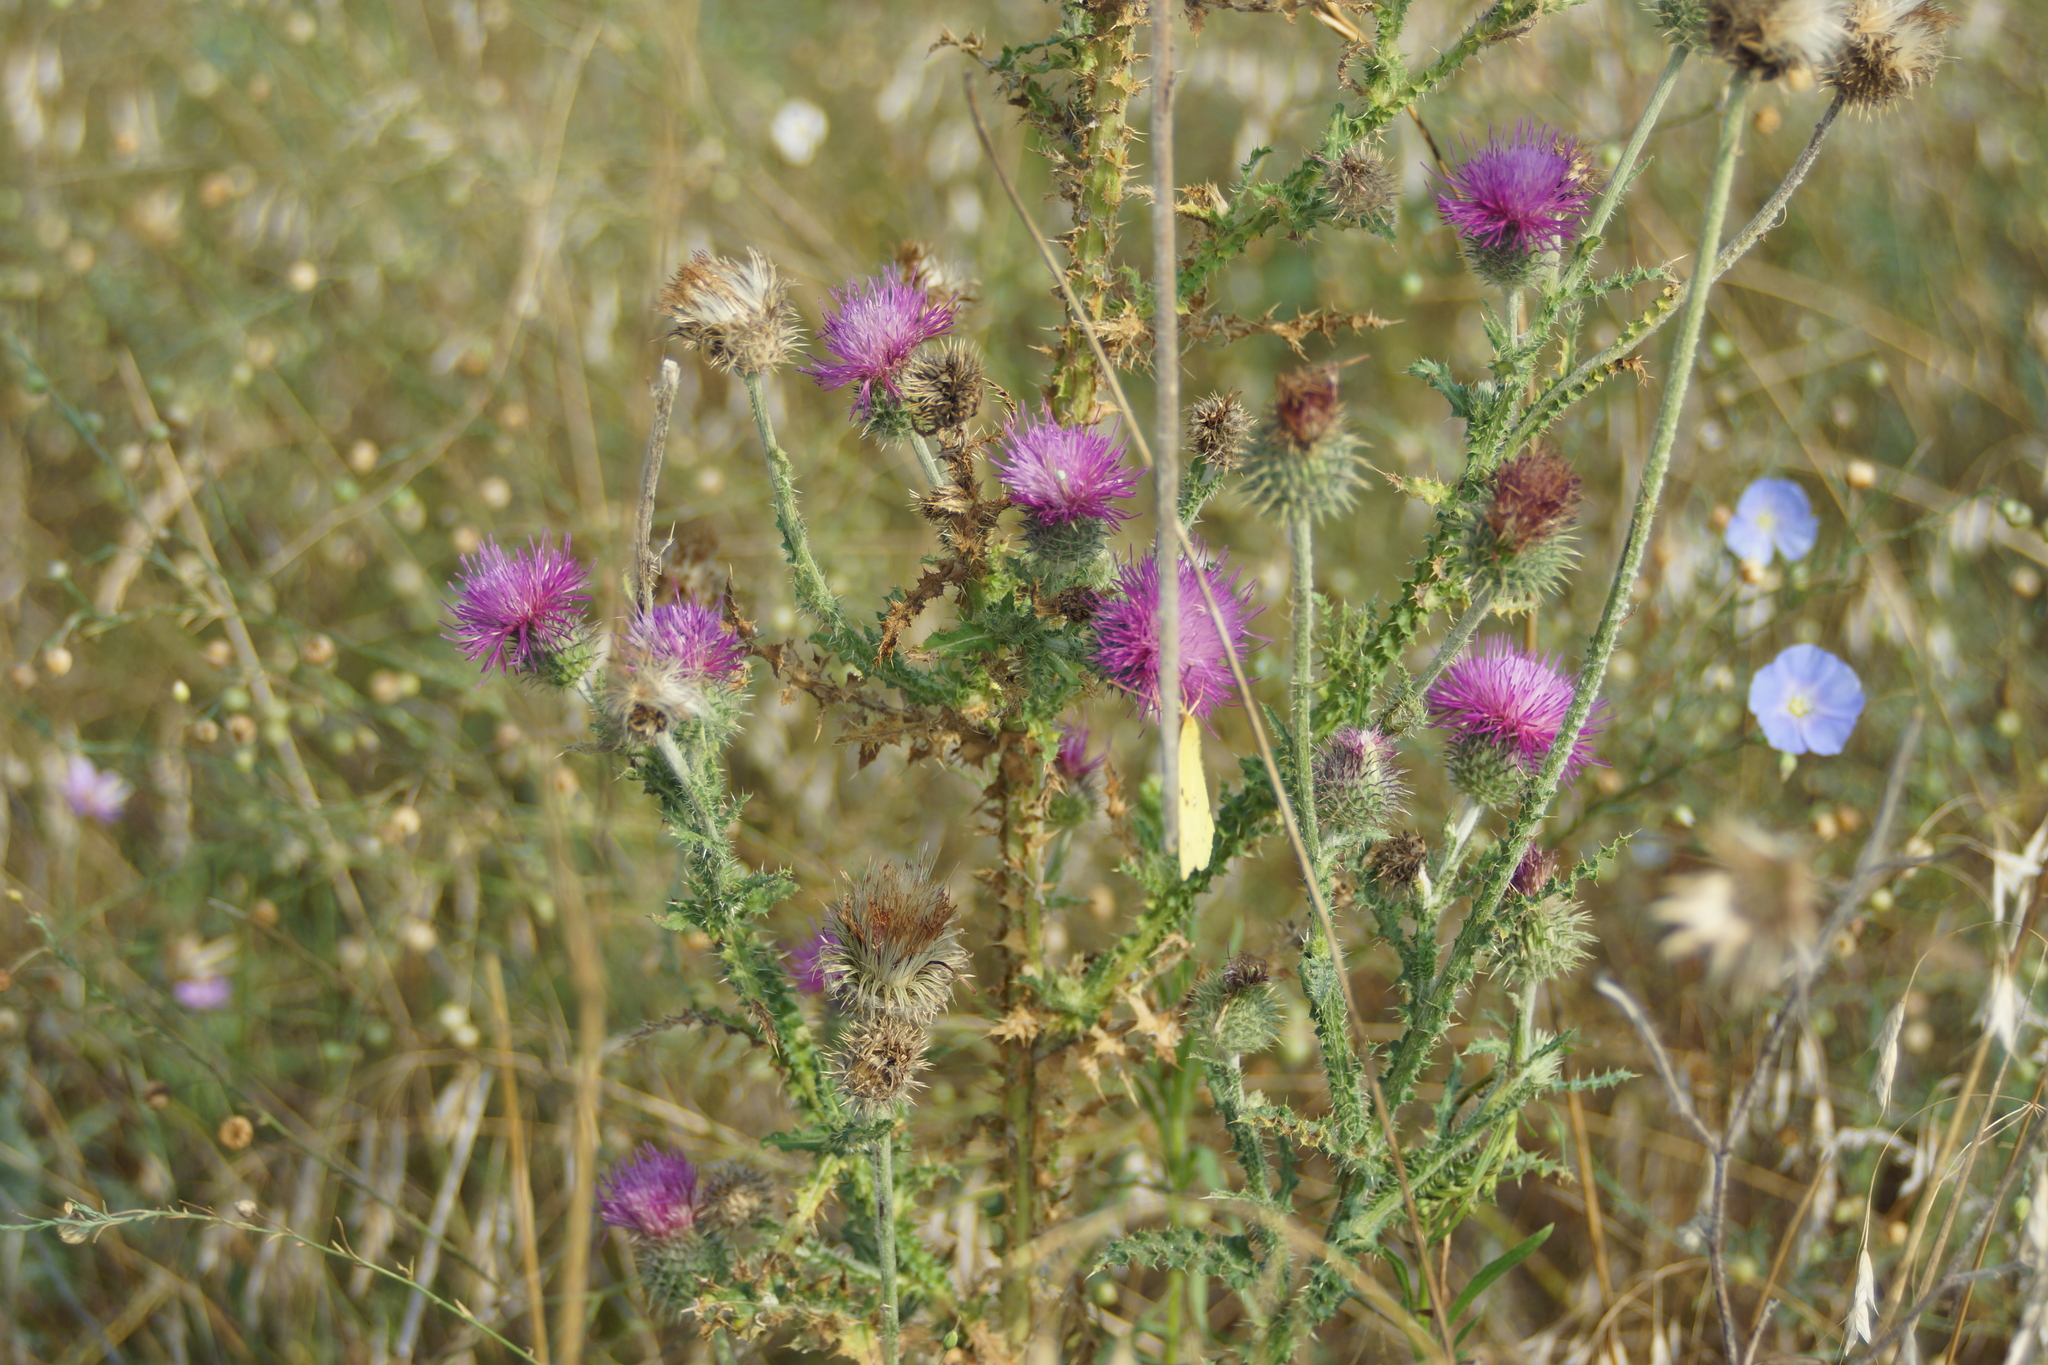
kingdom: Plantae
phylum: Tracheophyta
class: Magnoliopsida
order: Asterales
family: Asteraceae
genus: Carduus
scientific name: Carduus acanthoides
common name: Plumeless thistle
